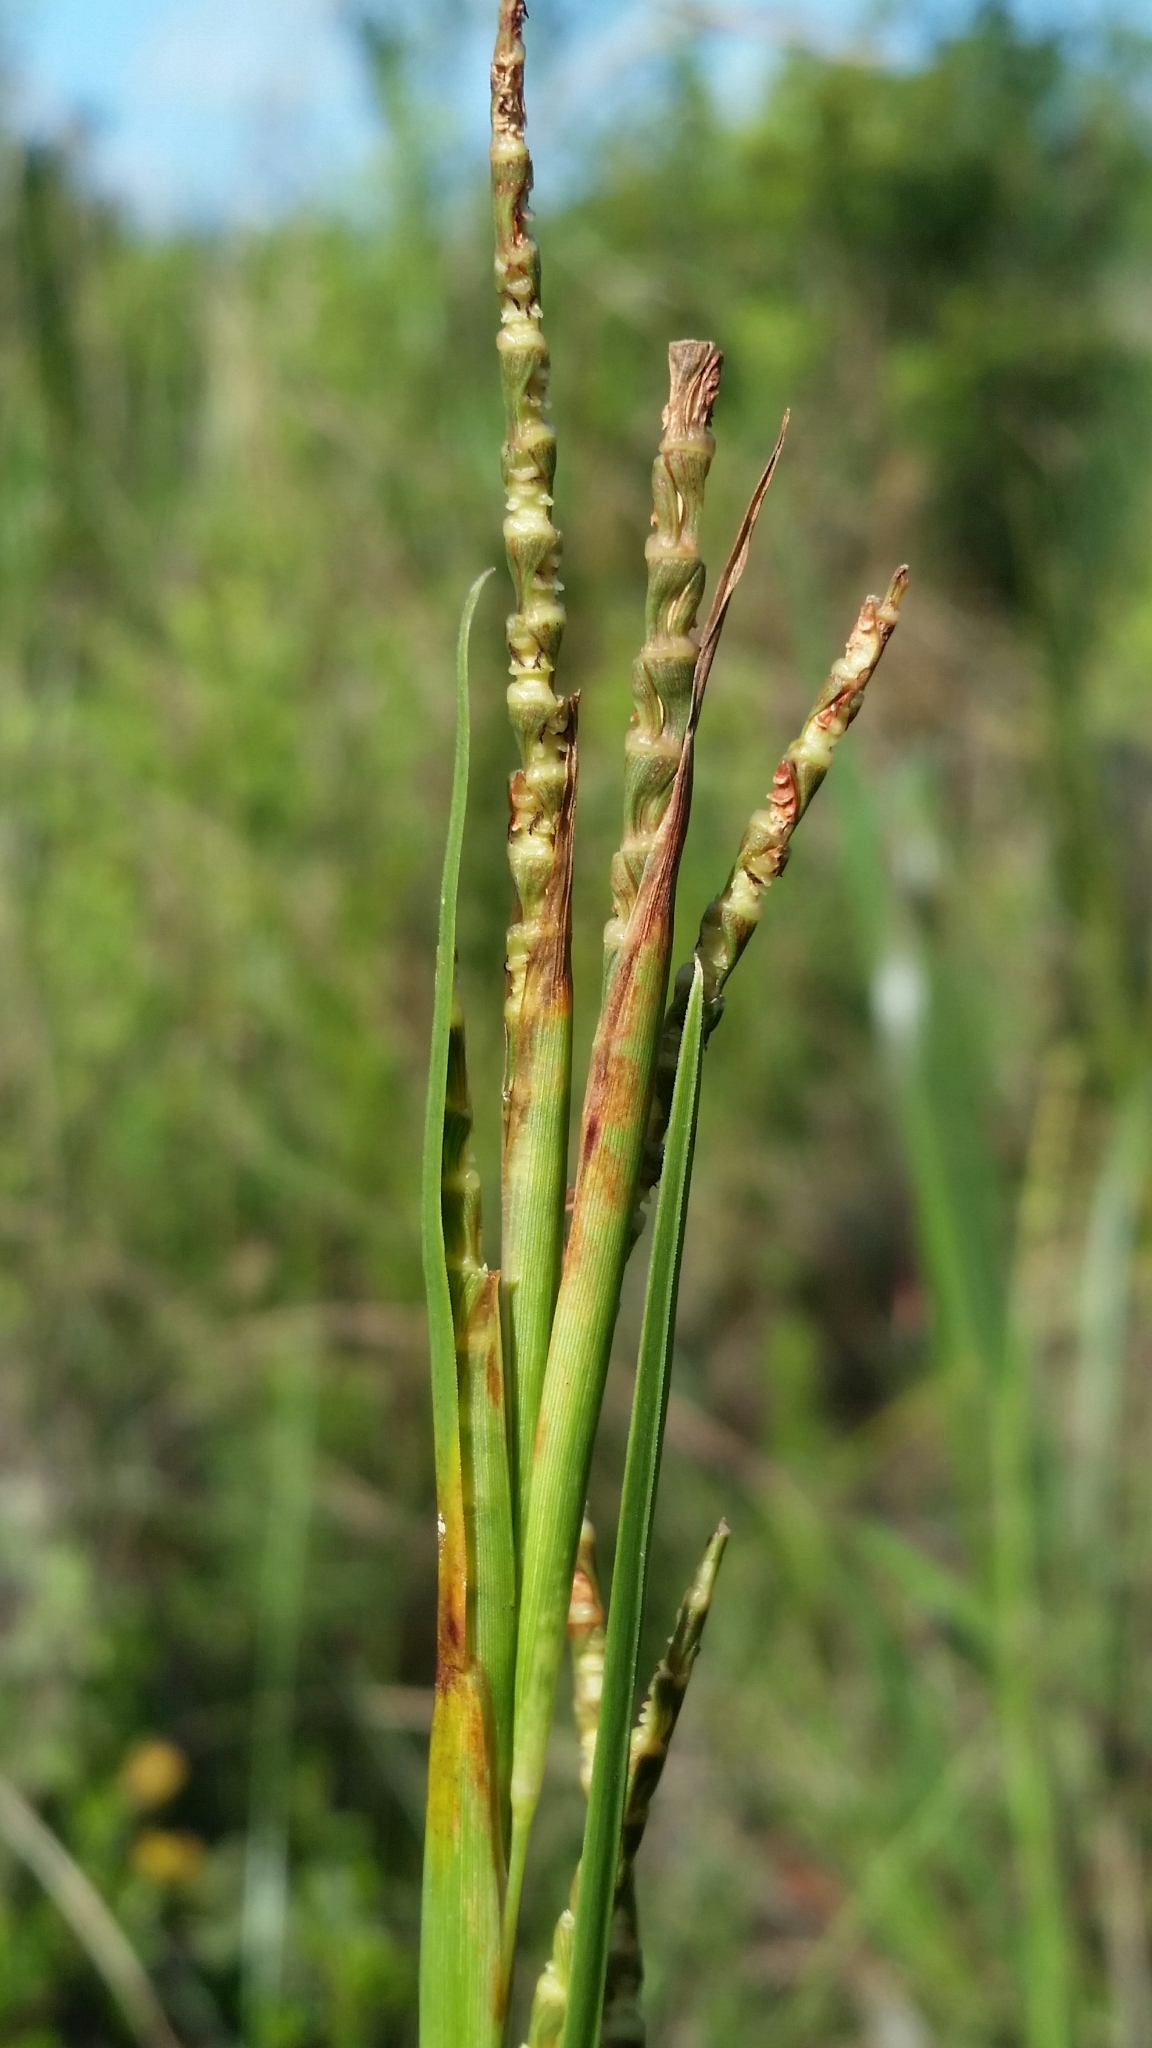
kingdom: Plantae
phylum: Tracheophyta
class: Liliopsida
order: Poales
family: Poaceae
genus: Rottboellia
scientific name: Rottboellia rugosa
